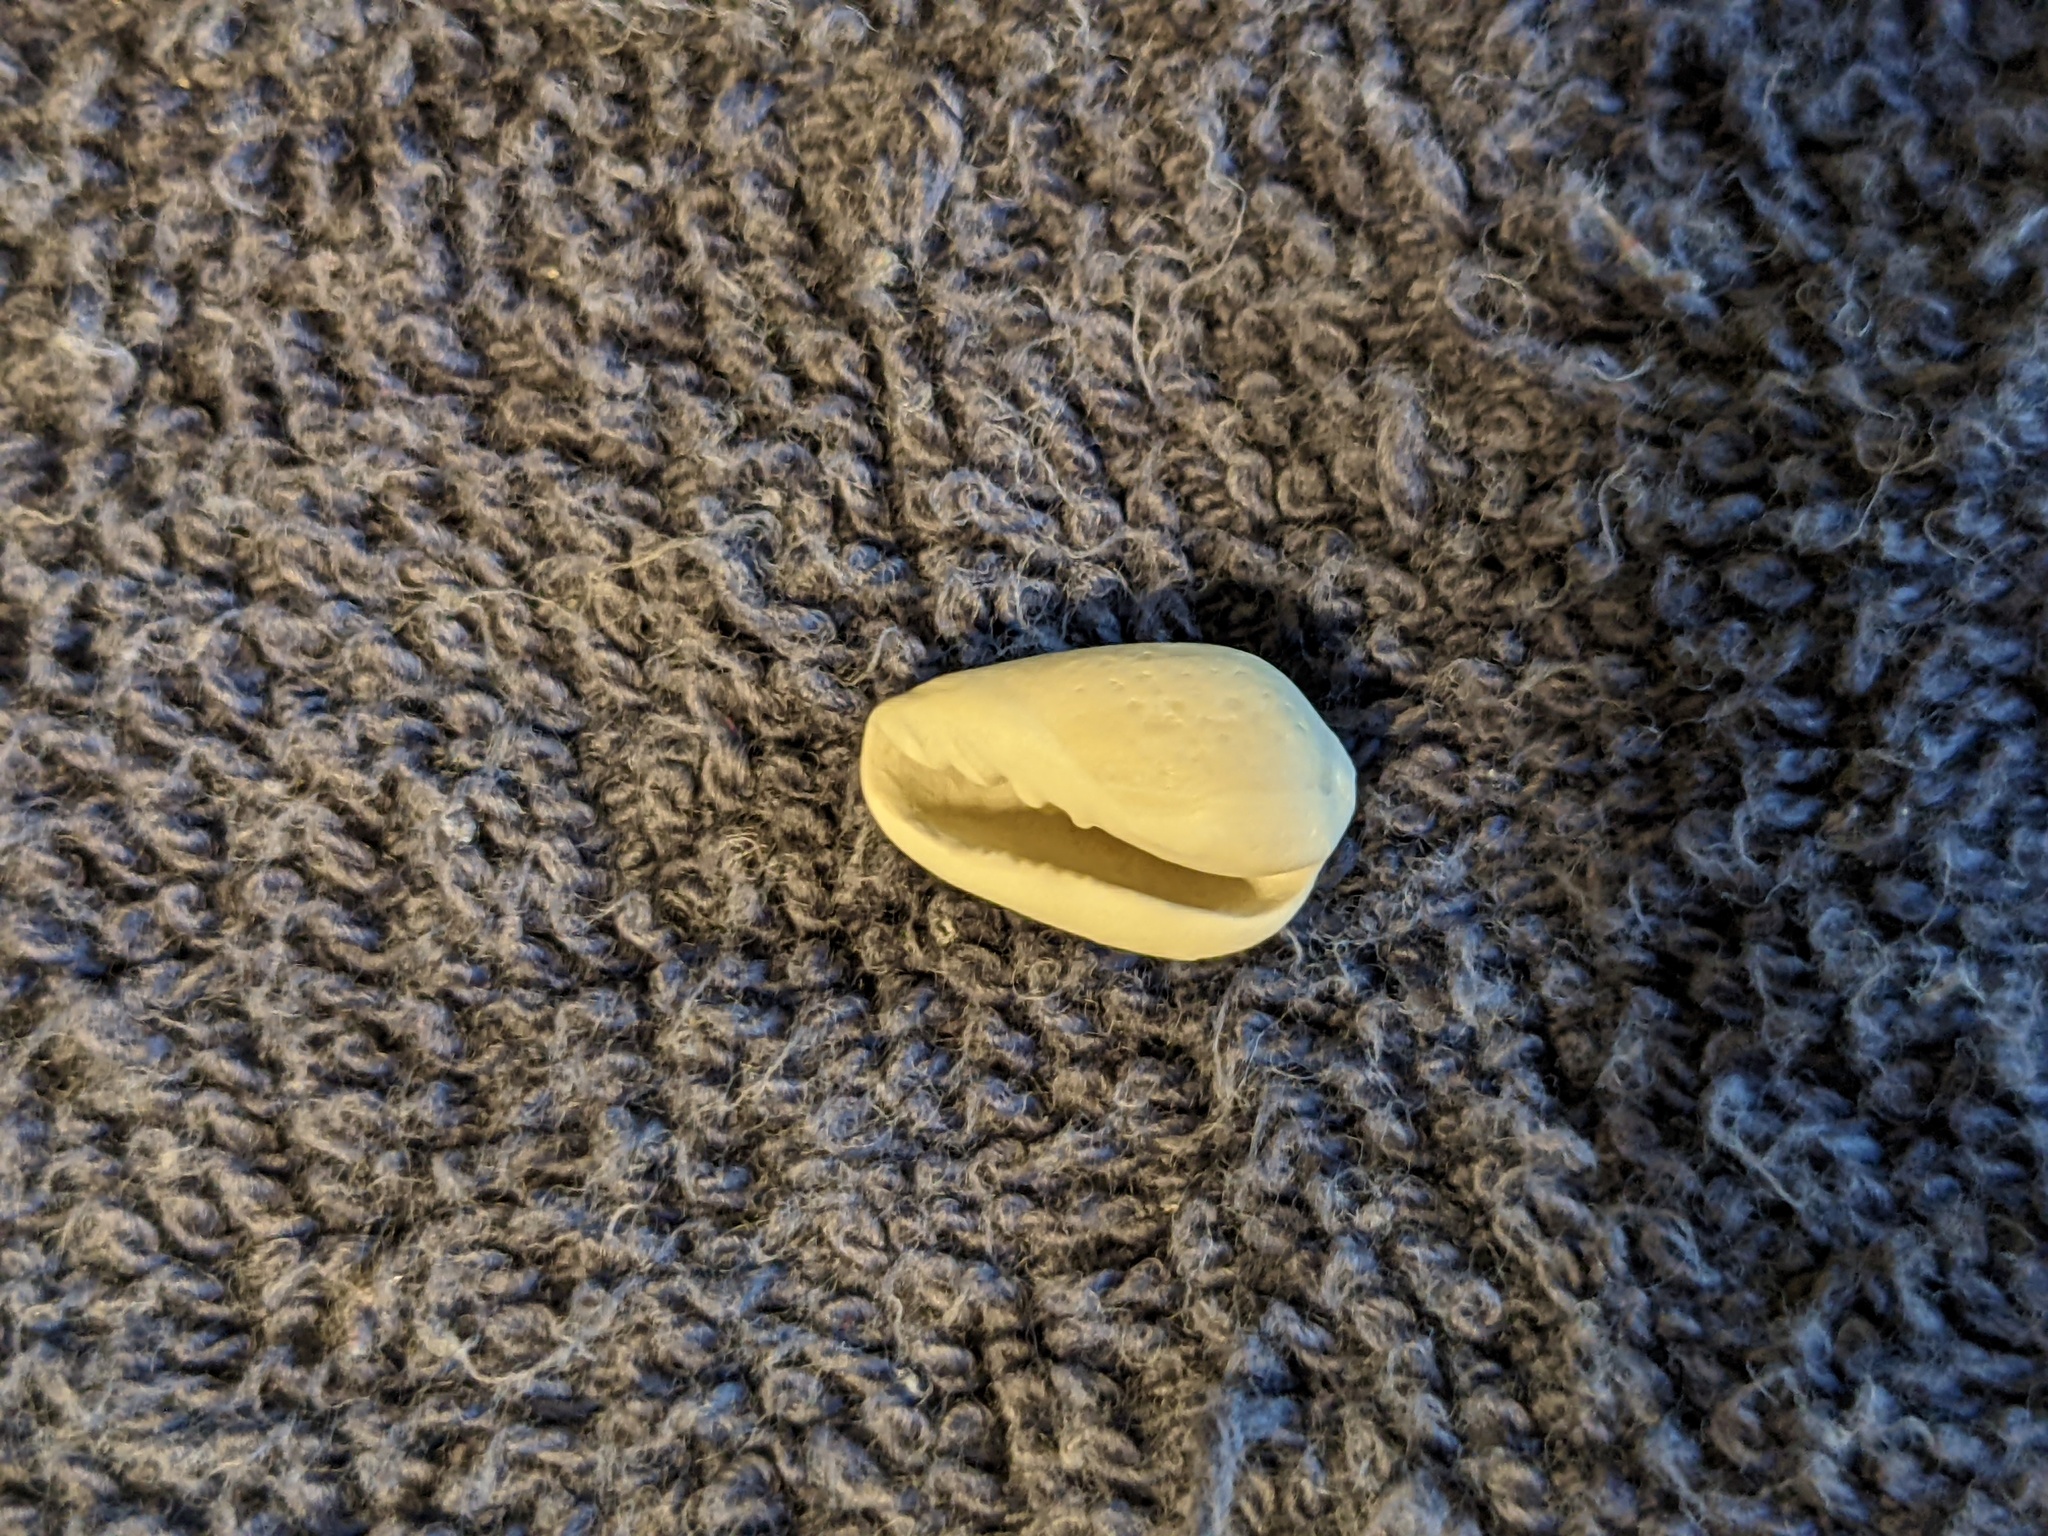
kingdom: Animalia
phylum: Mollusca
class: Gastropoda
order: Neogastropoda
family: Marginellidae
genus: Prunum
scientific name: Prunum roscidum
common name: Seaboard marginella
